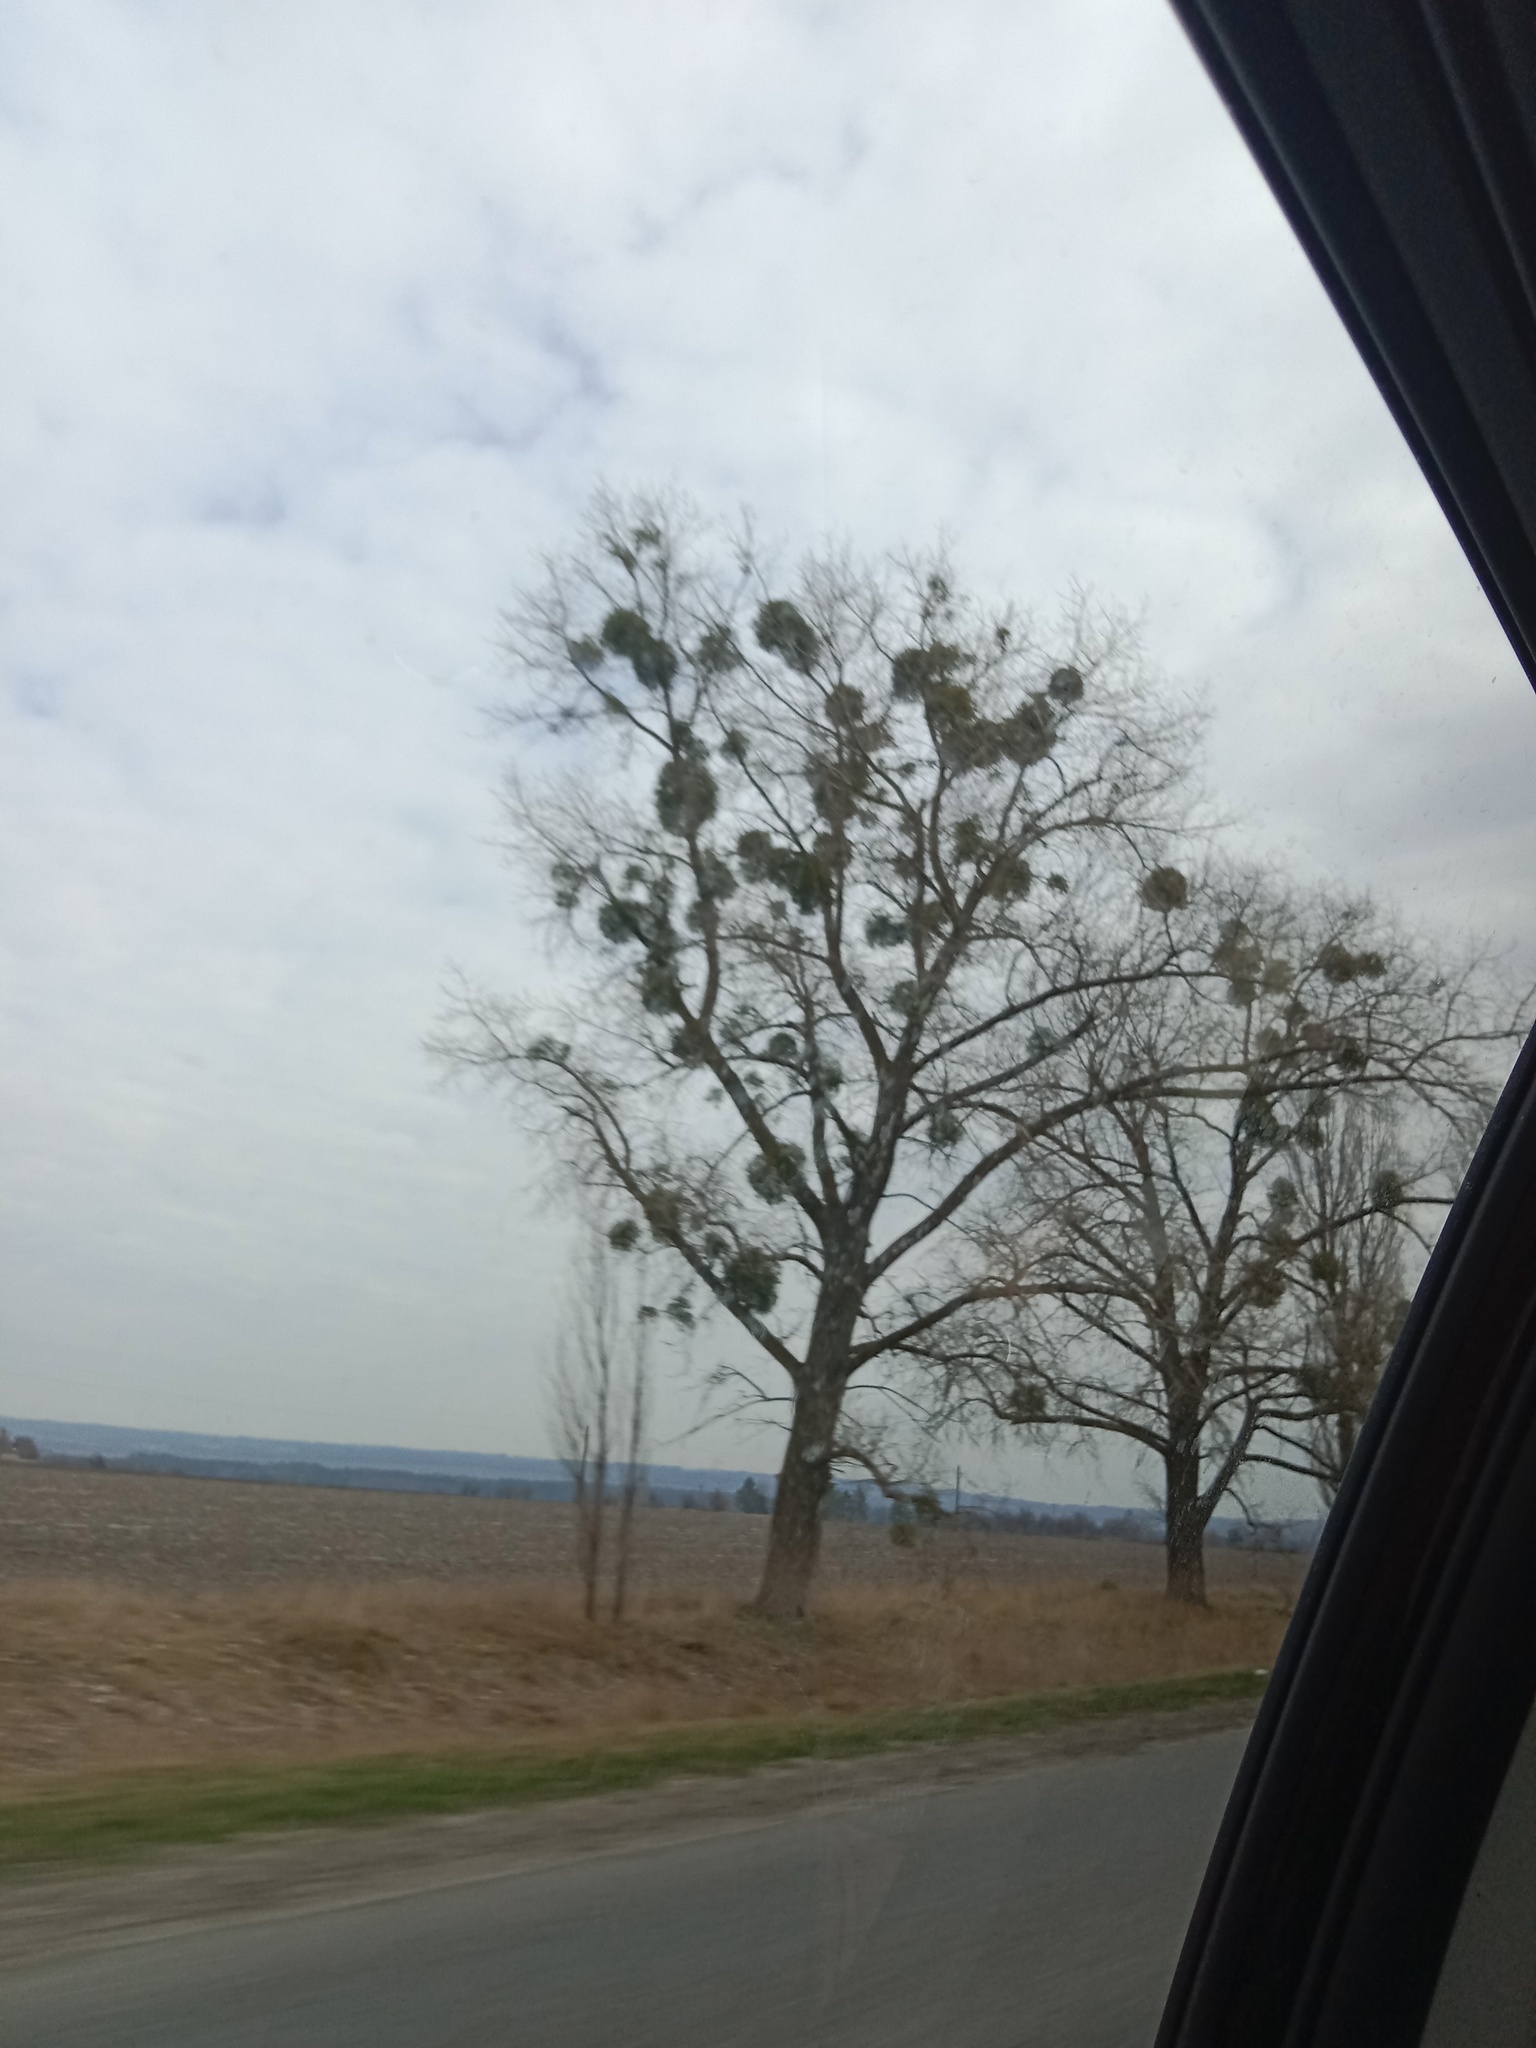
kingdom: Plantae
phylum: Tracheophyta
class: Magnoliopsida
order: Santalales
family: Viscaceae
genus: Viscum
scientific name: Viscum album
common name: Mistletoe
